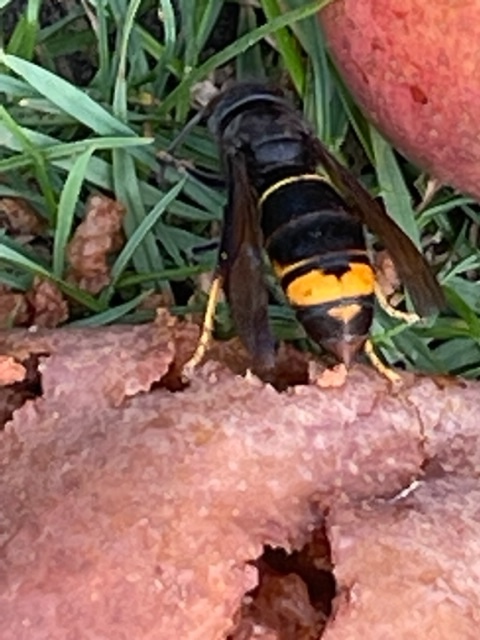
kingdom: Animalia
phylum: Arthropoda
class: Insecta
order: Hymenoptera
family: Vespidae
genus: Vespa
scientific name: Vespa velutina
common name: Asian hornet
